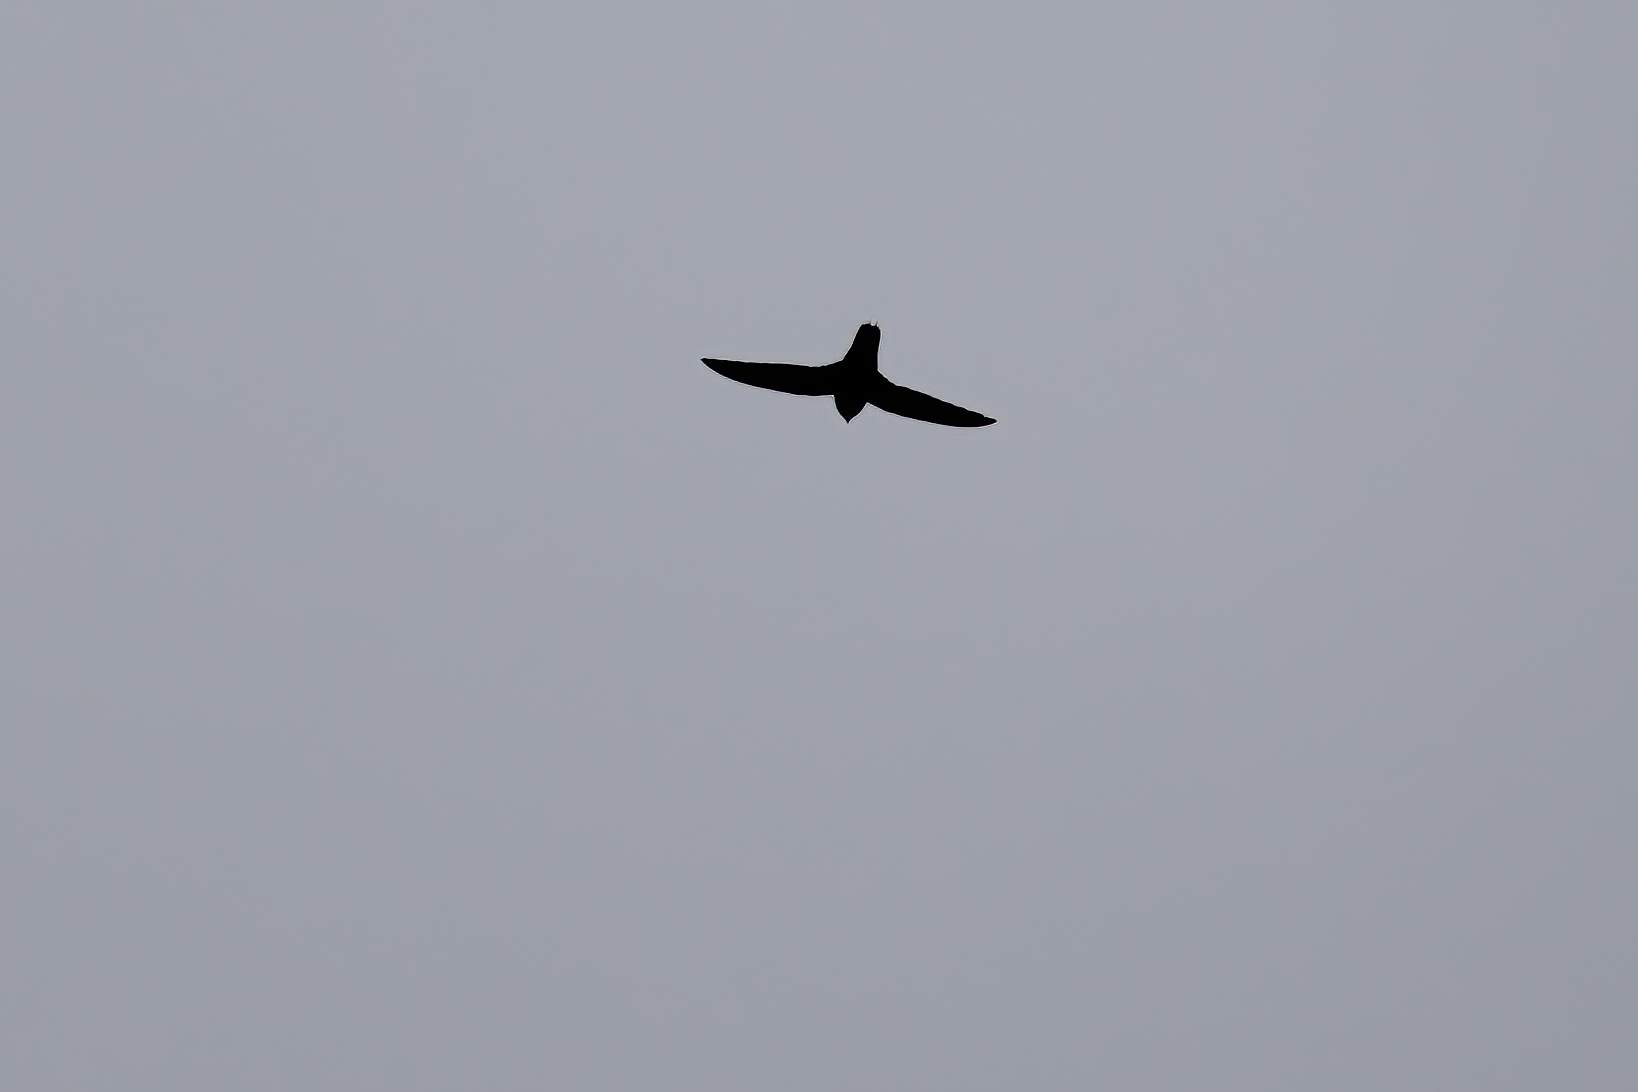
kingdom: Animalia
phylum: Chordata
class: Aves
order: Apodiformes
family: Apodidae
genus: Chaetura
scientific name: Chaetura pelagica
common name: Chimney swift
